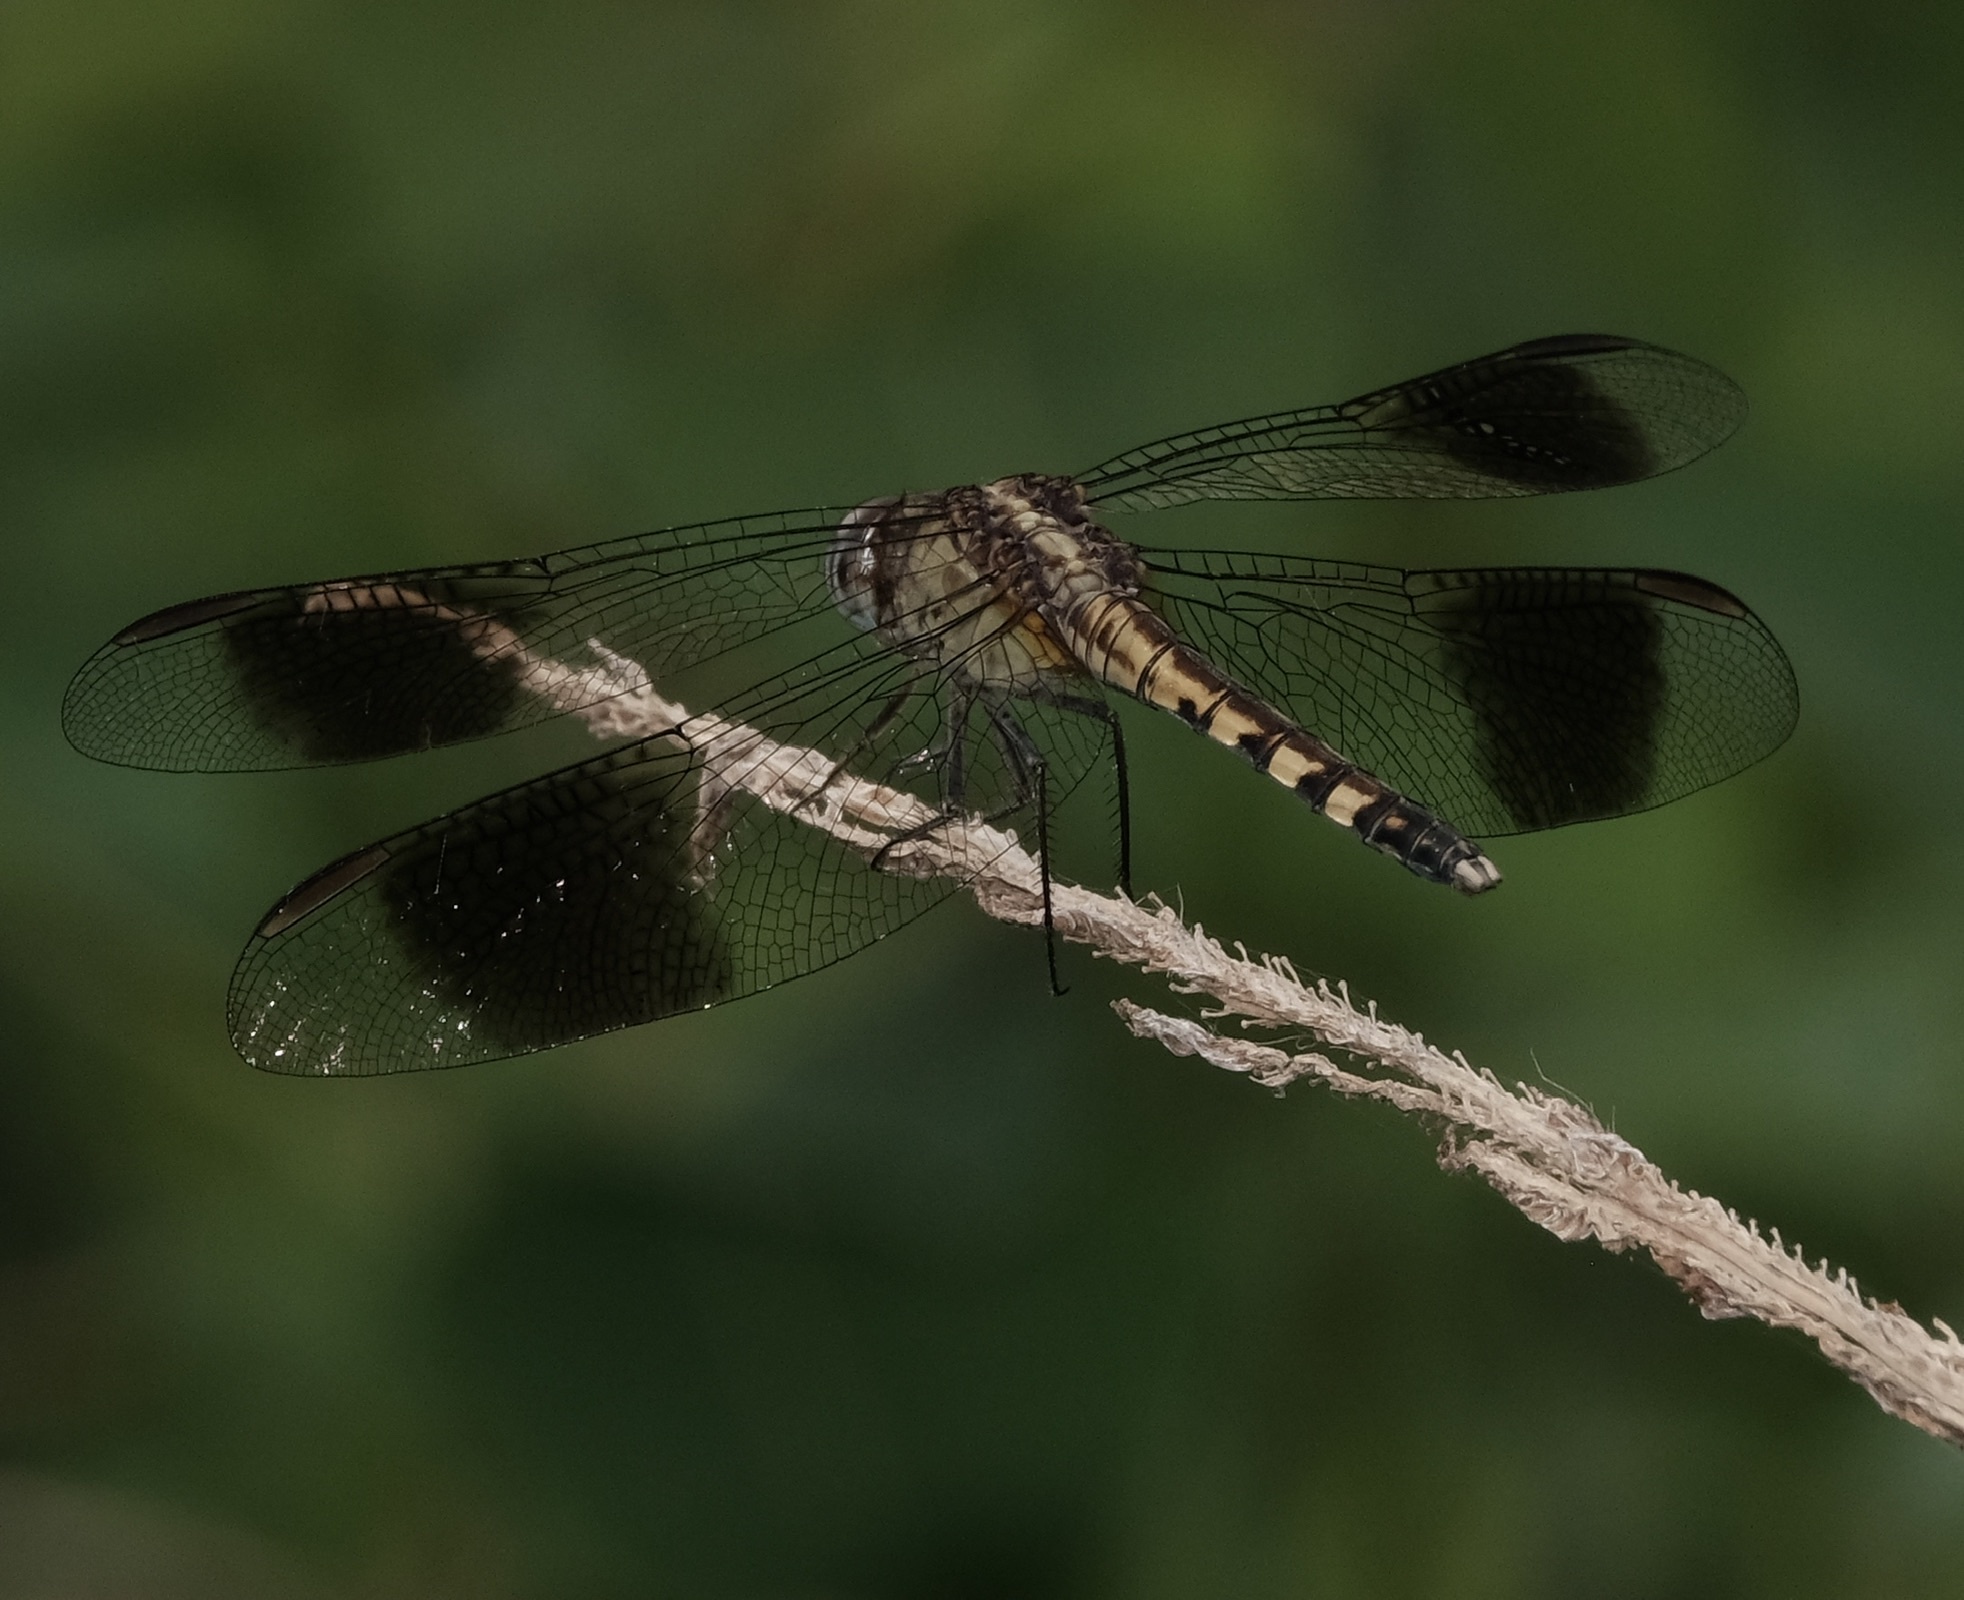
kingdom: Animalia
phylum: Arthropoda
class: Insecta
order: Odonata
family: Libellulidae
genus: Erythrodiplax
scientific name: Erythrodiplax umbrata
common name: Band-winged dragonlet
